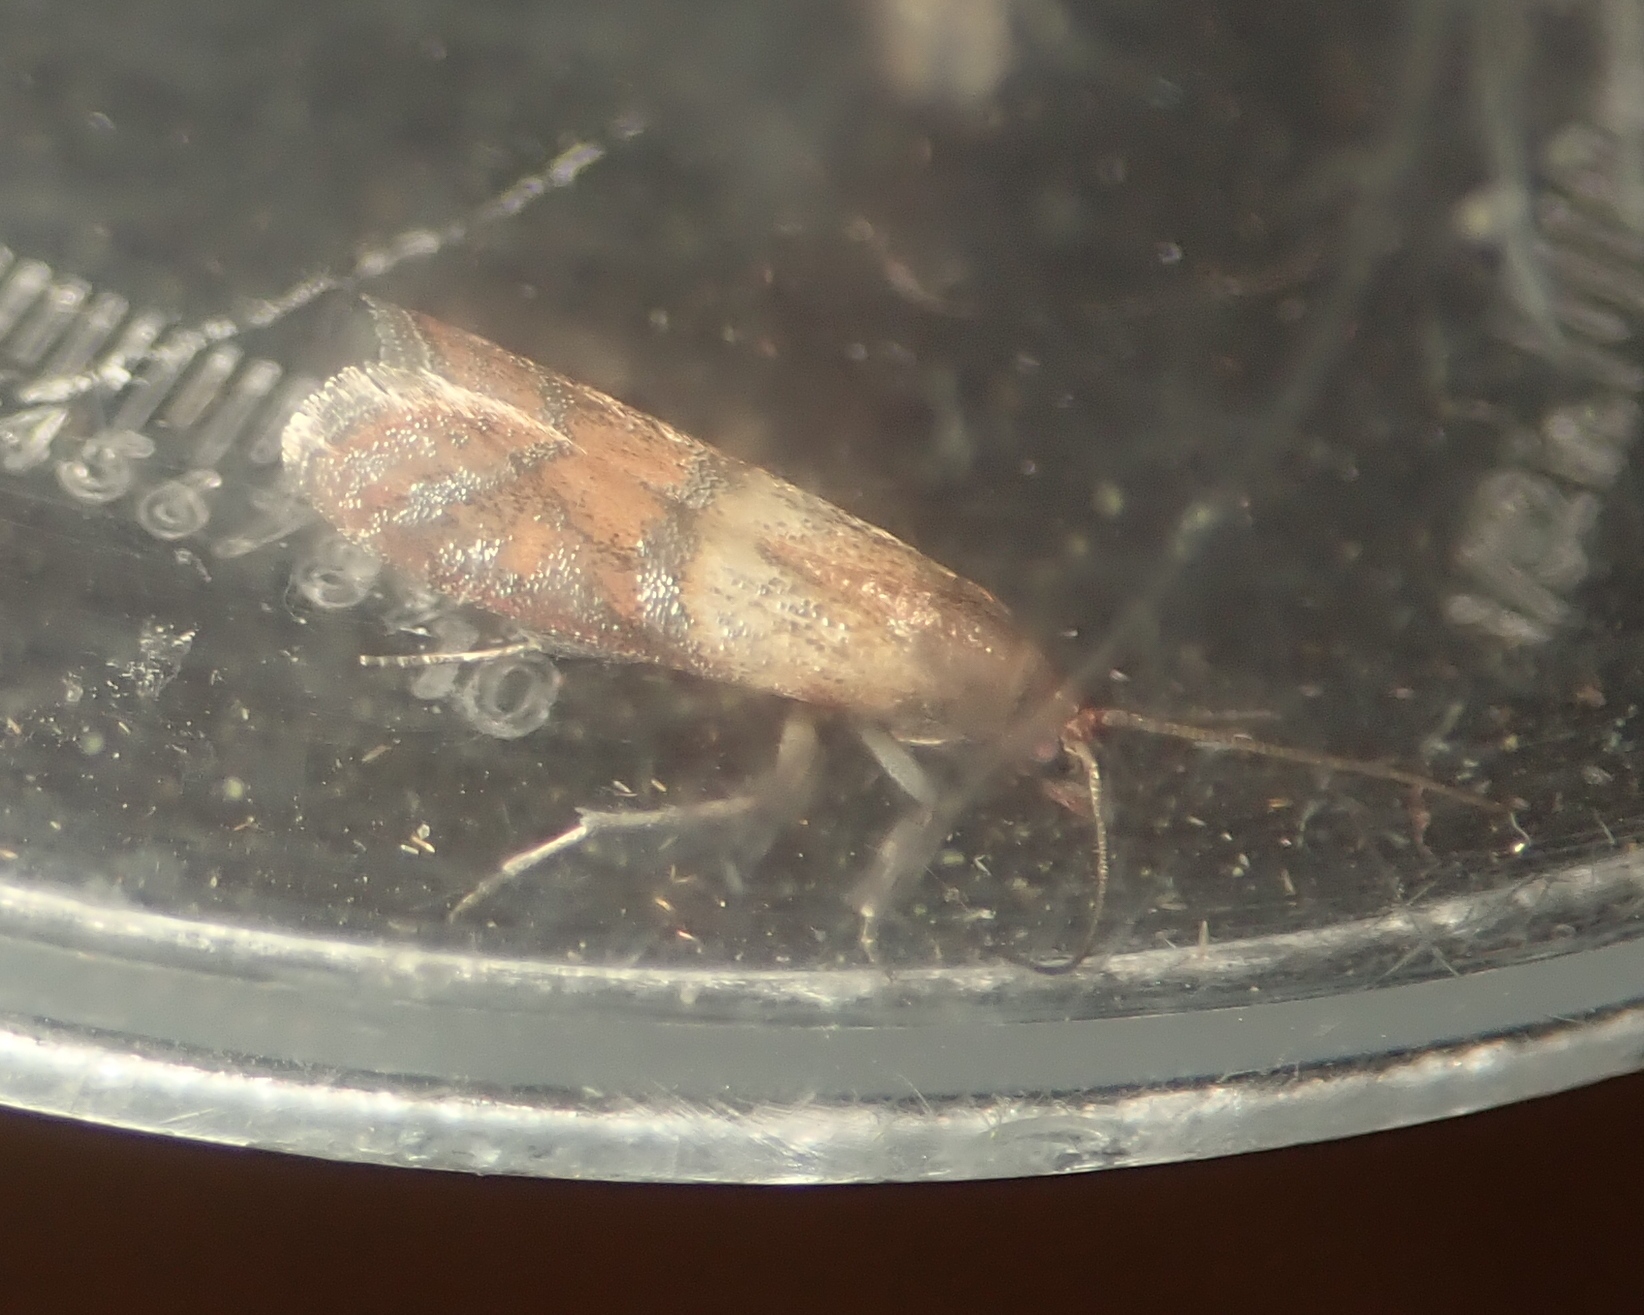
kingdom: Animalia
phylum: Arthropoda
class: Insecta
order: Lepidoptera
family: Pyralidae
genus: Plodia
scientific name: Plodia interpunctella
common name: Indian meal moth
